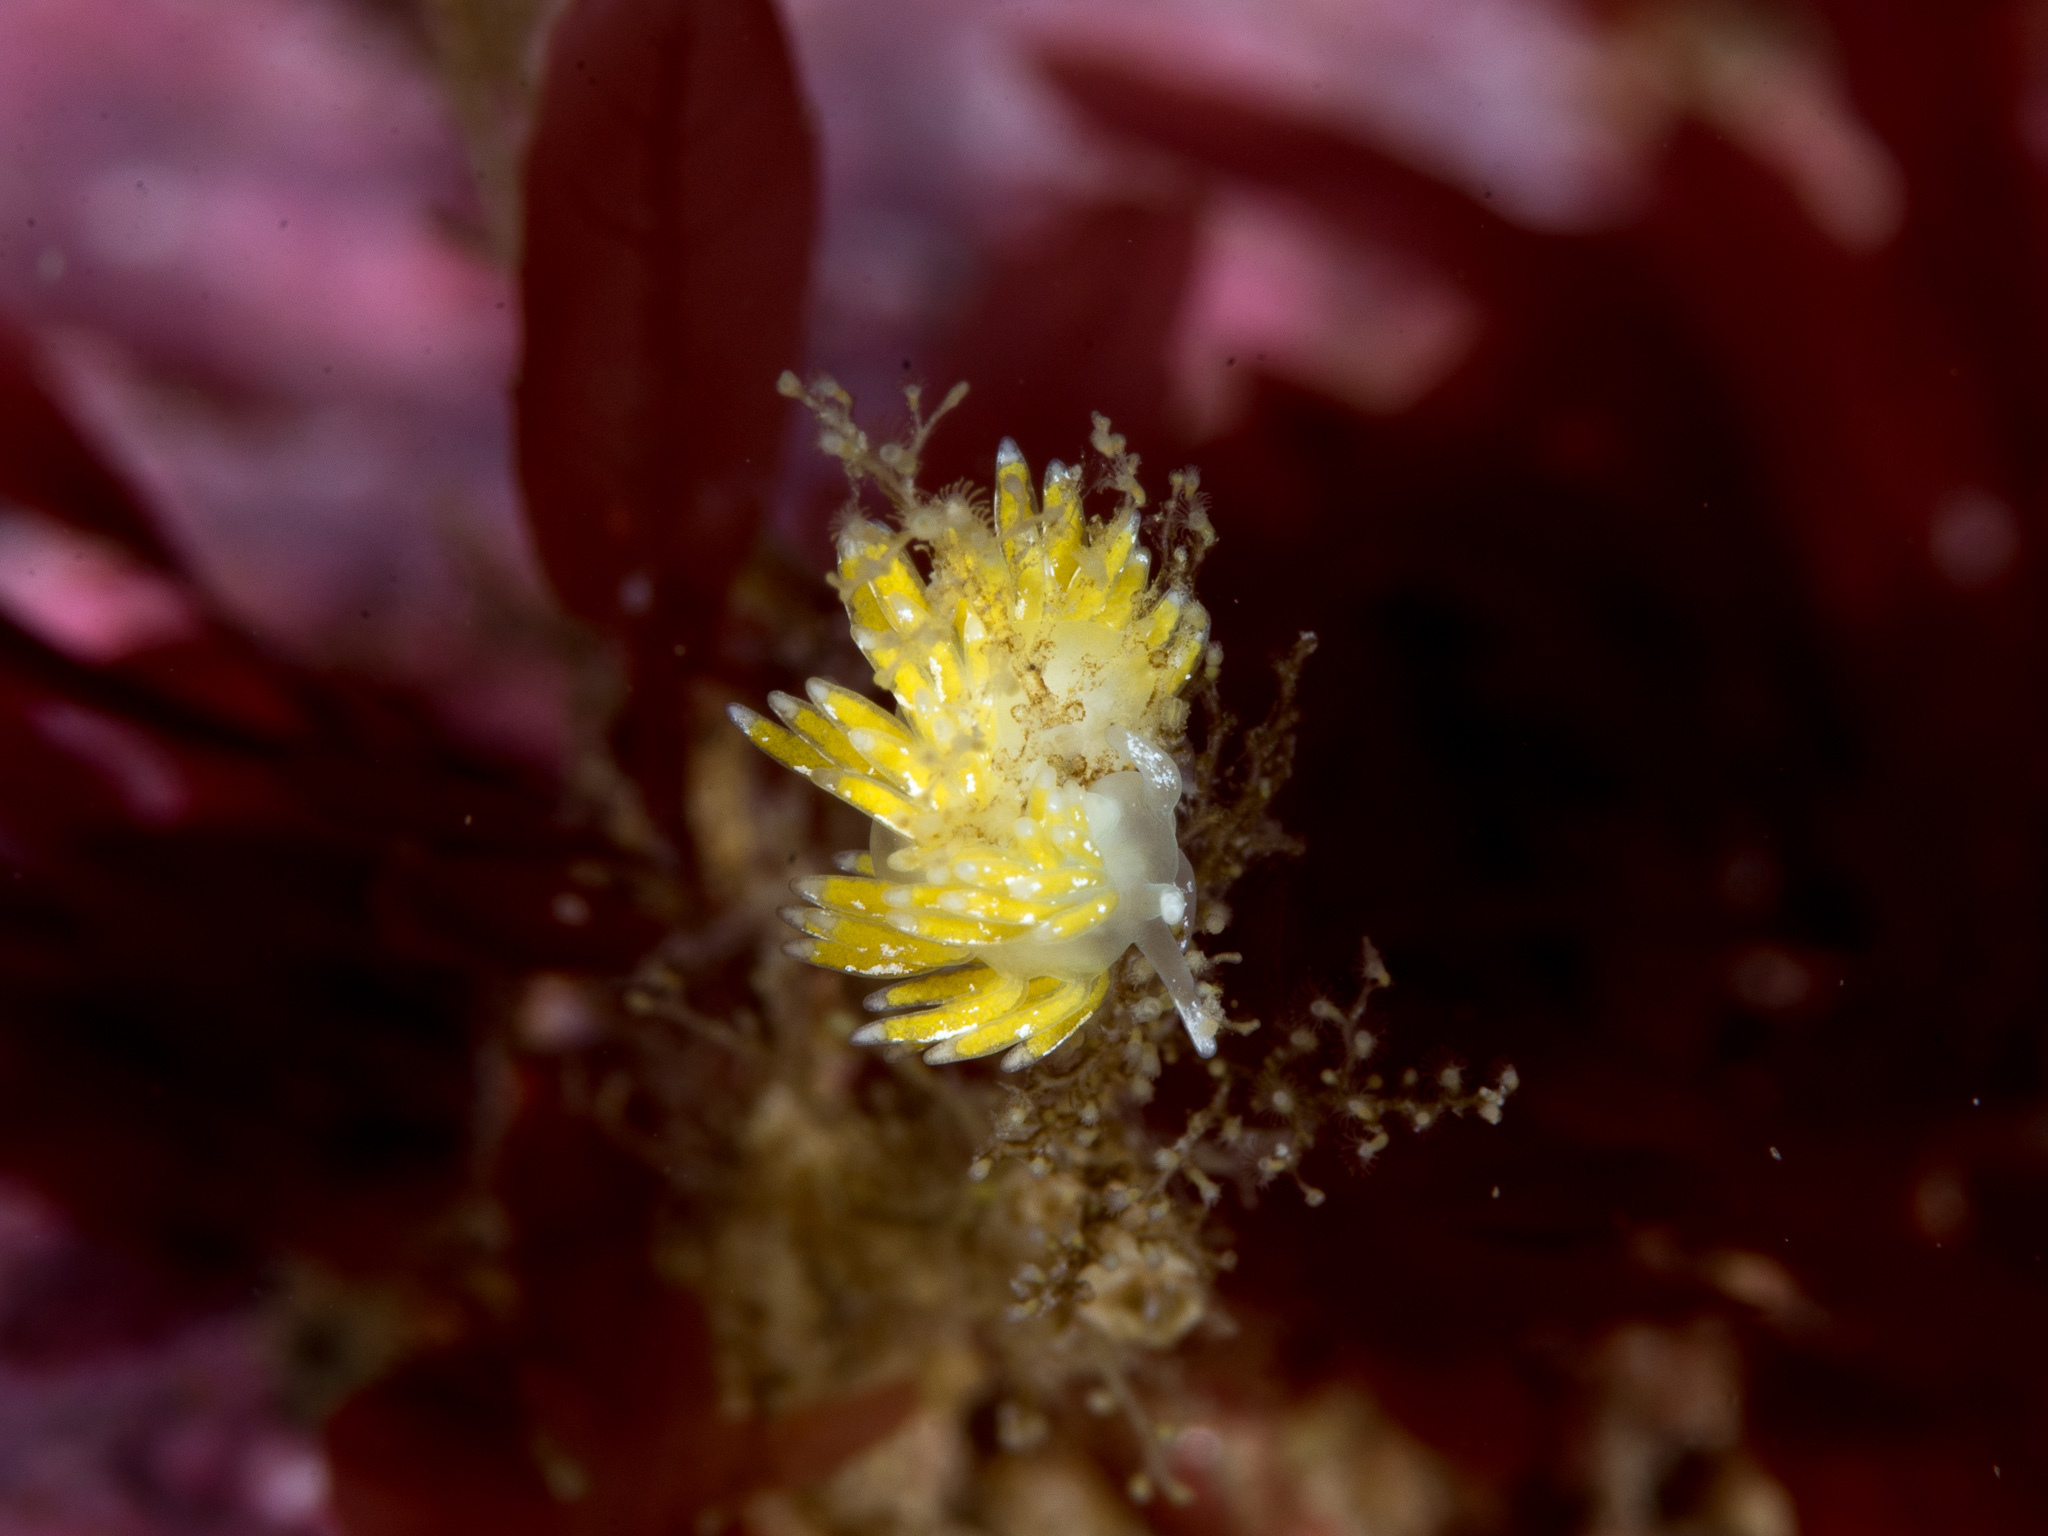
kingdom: Animalia
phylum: Mollusca
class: Gastropoda
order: Nudibranchia
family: Trinchesiidae
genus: Zelentia
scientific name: Zelentia pustulata
